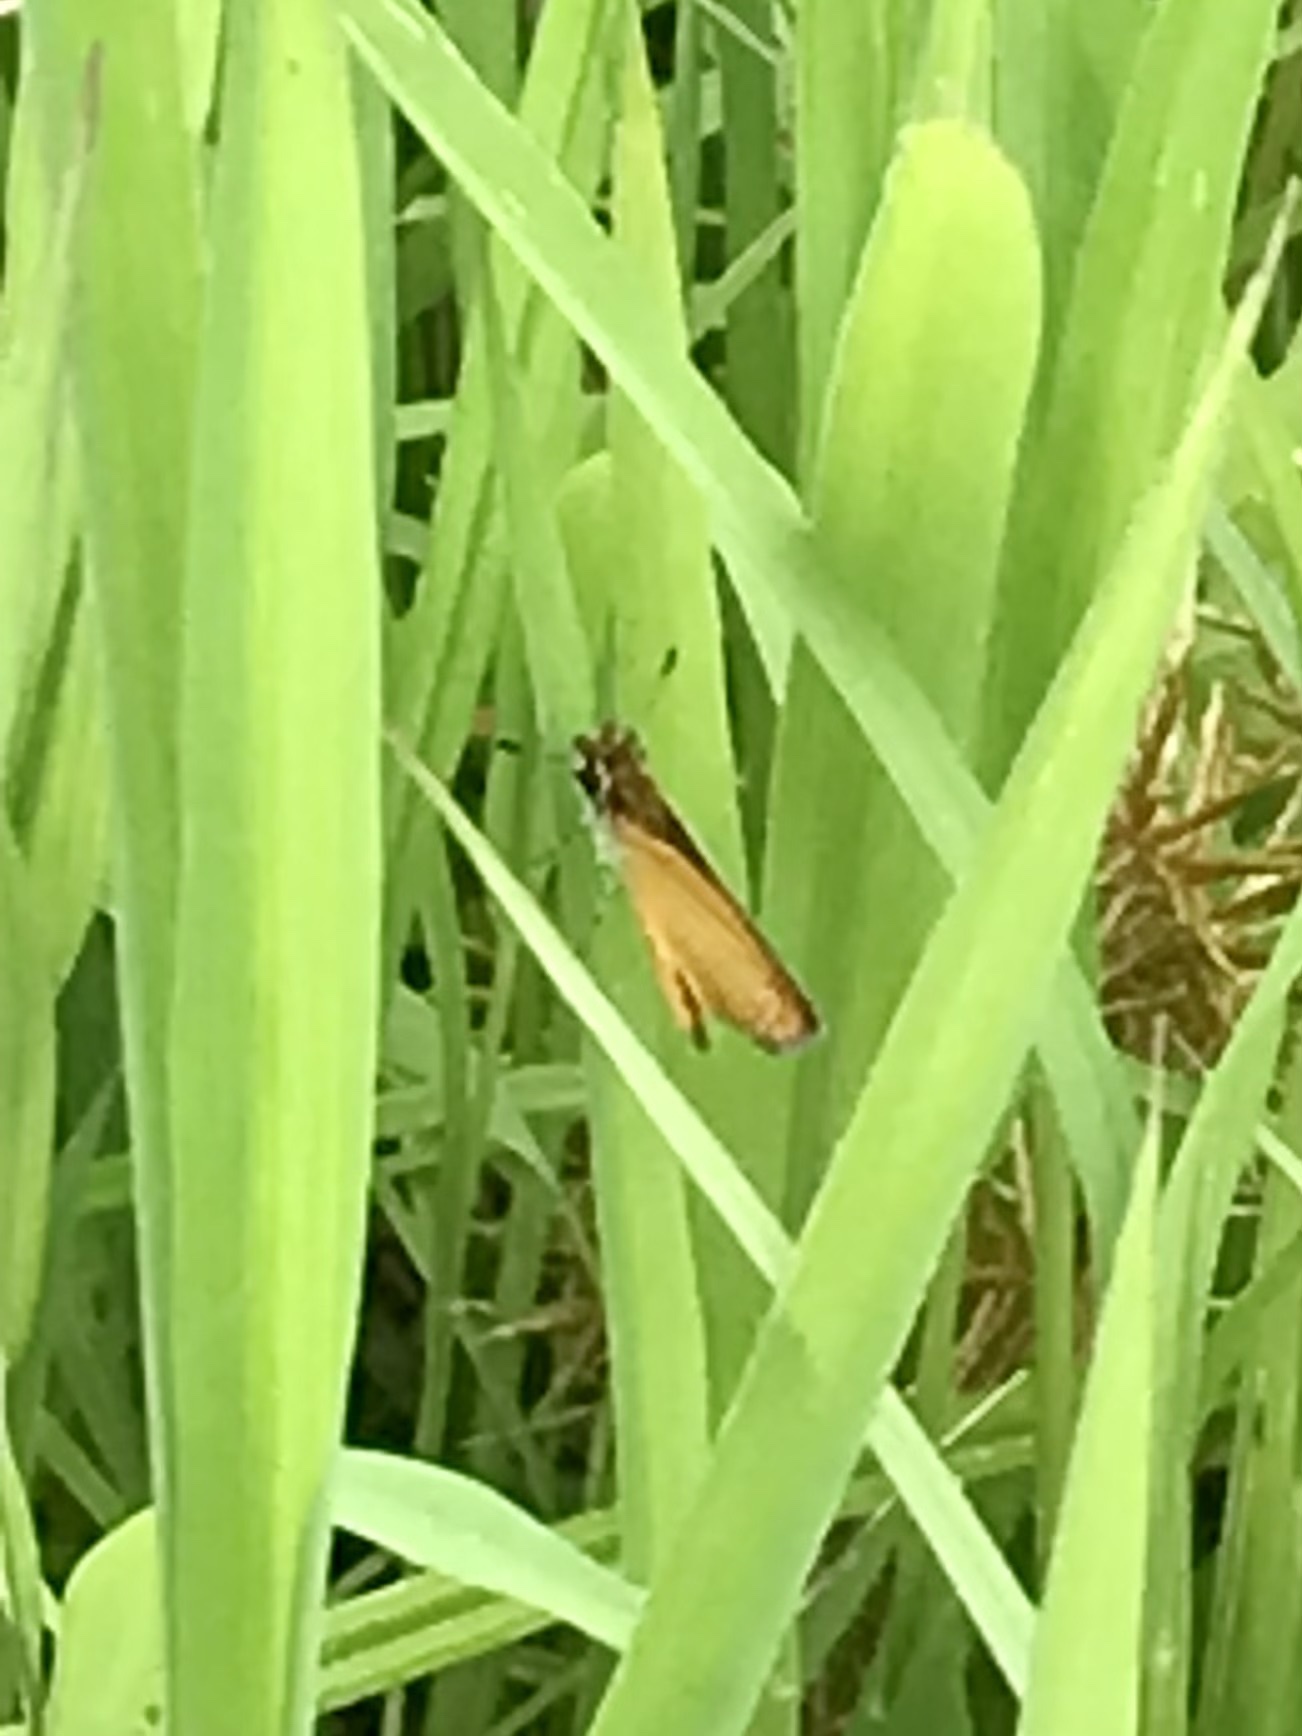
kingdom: Animalia
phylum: Arthropoda
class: Insecta
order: Lepidoptera
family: Hesperiidae
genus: Ancyloxypha
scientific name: Ancyloxypha numitor
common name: Least skipper
